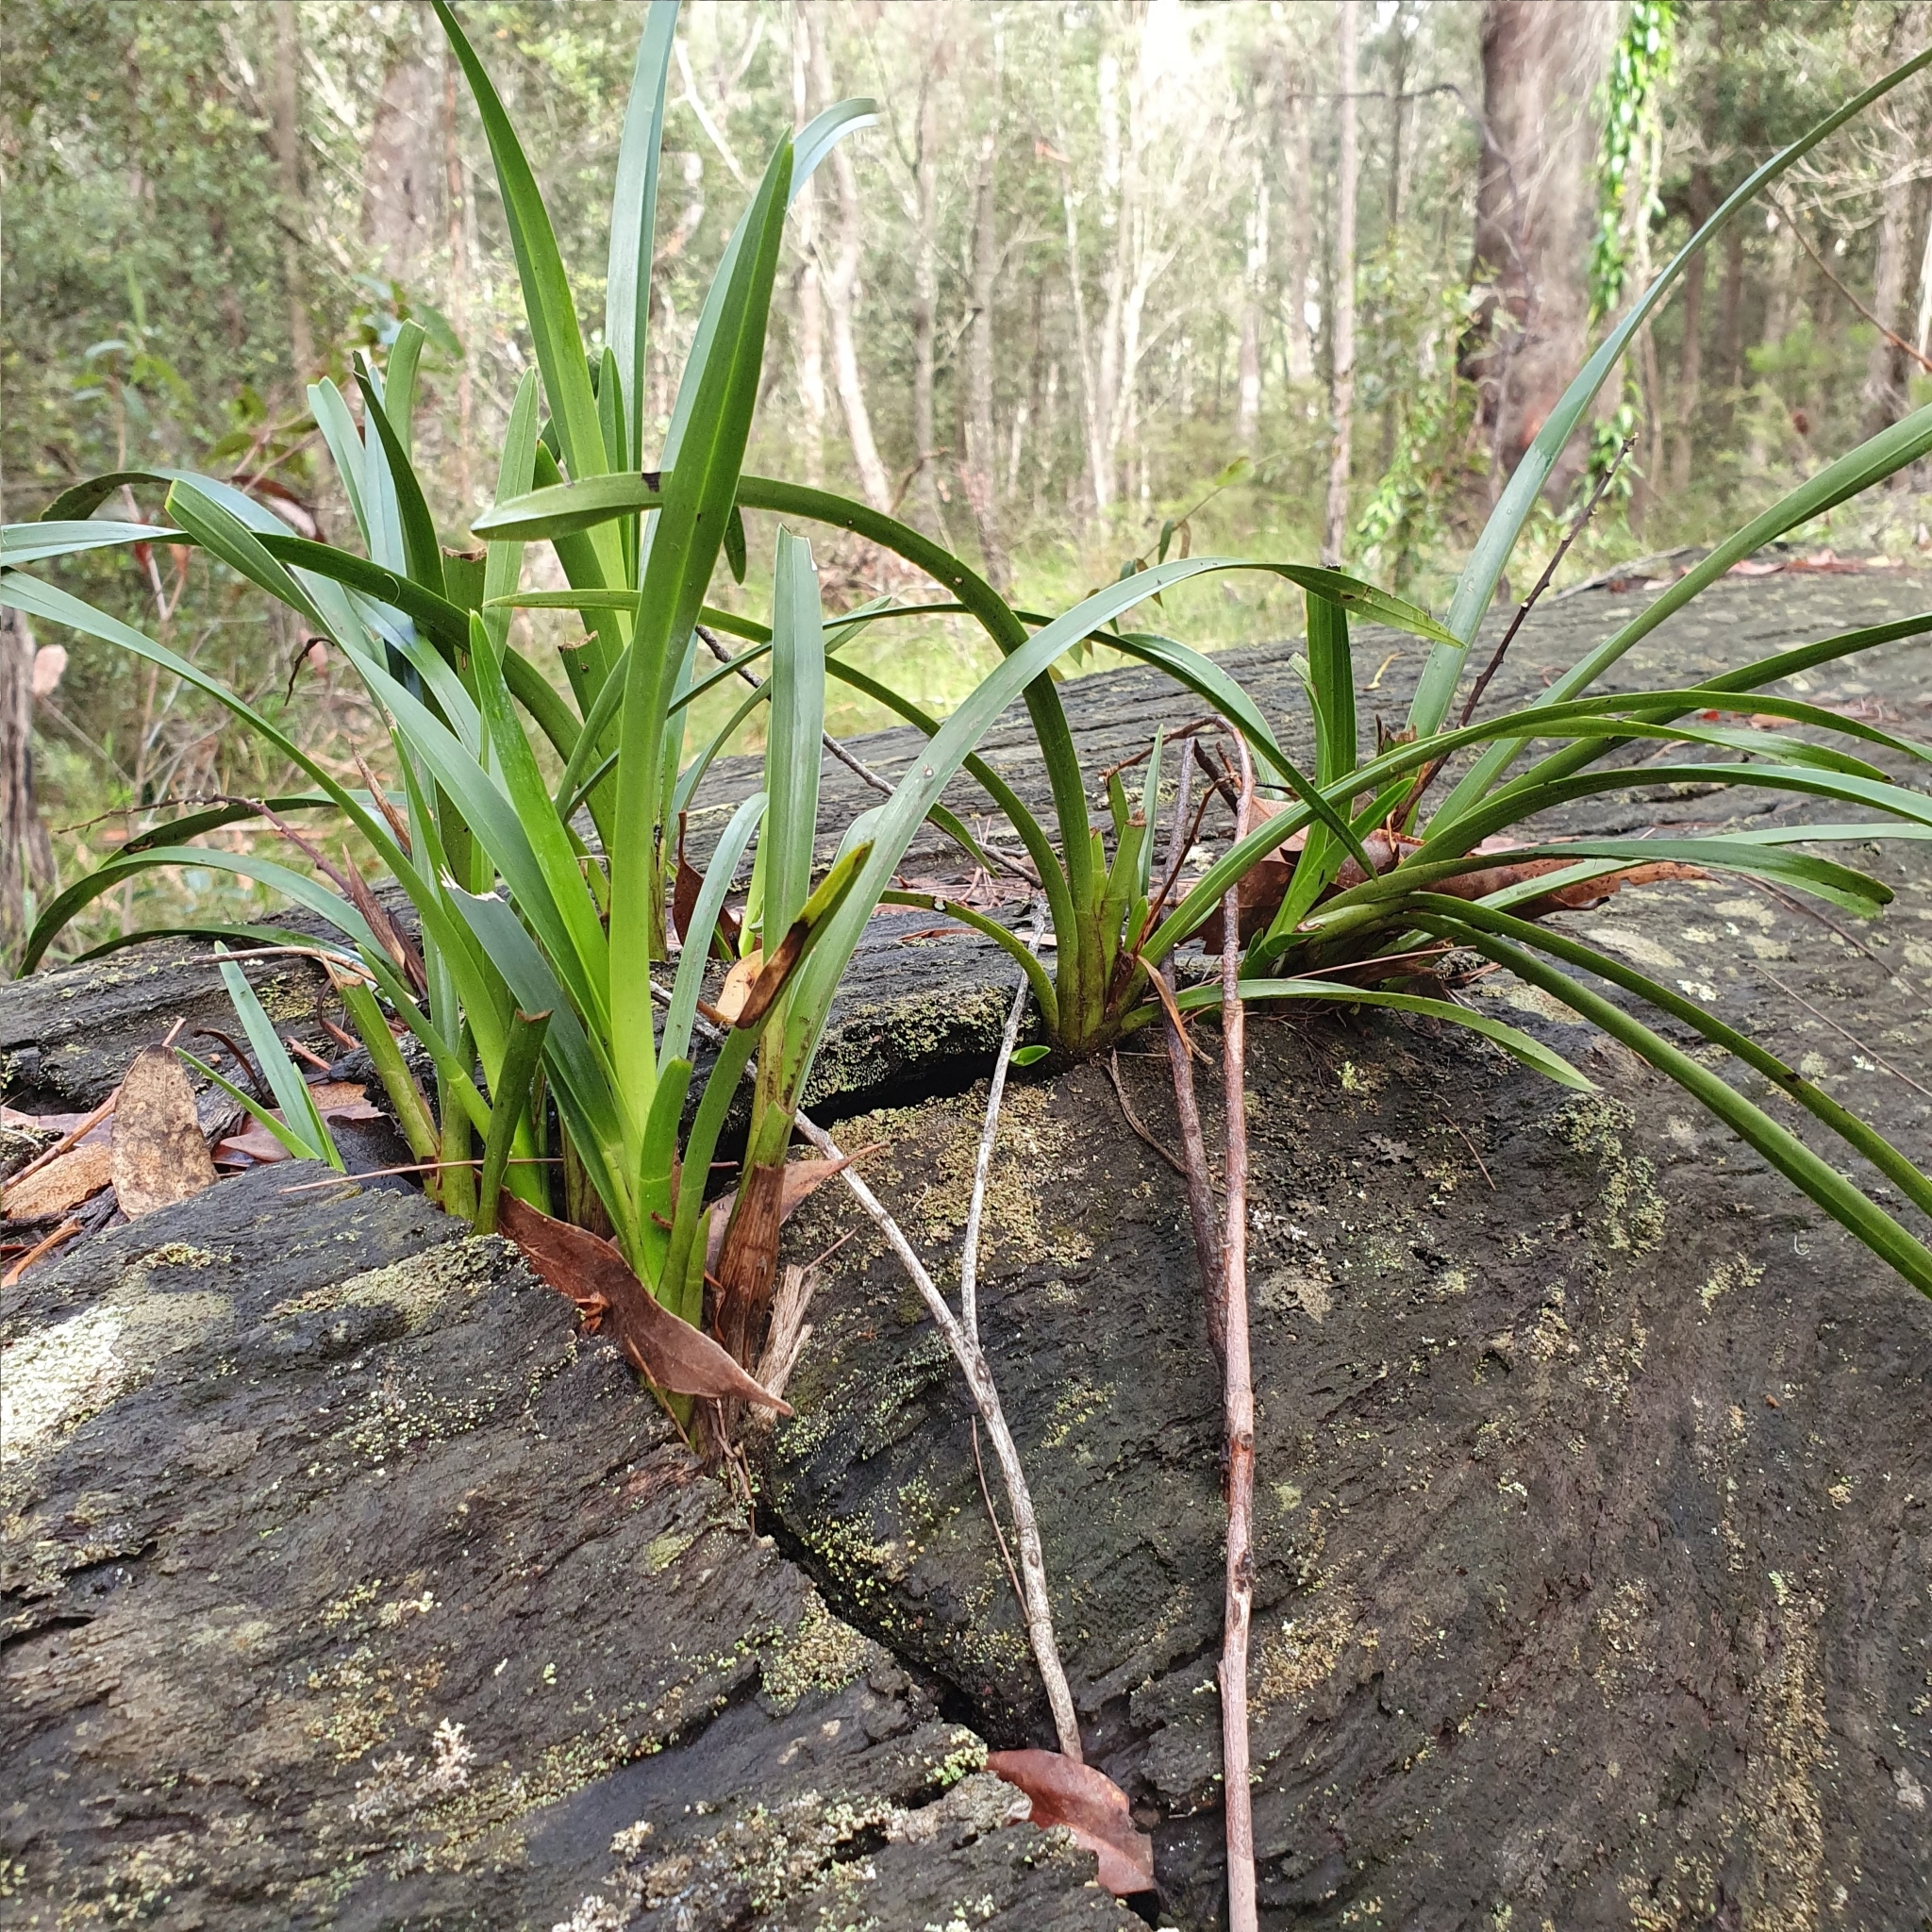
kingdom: Plantae
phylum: Tracheophyta
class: Liliopsida
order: Asparagales
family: Orchidaceae
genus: Cymbidium
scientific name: Cymbidium suave
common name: Snake orchid
